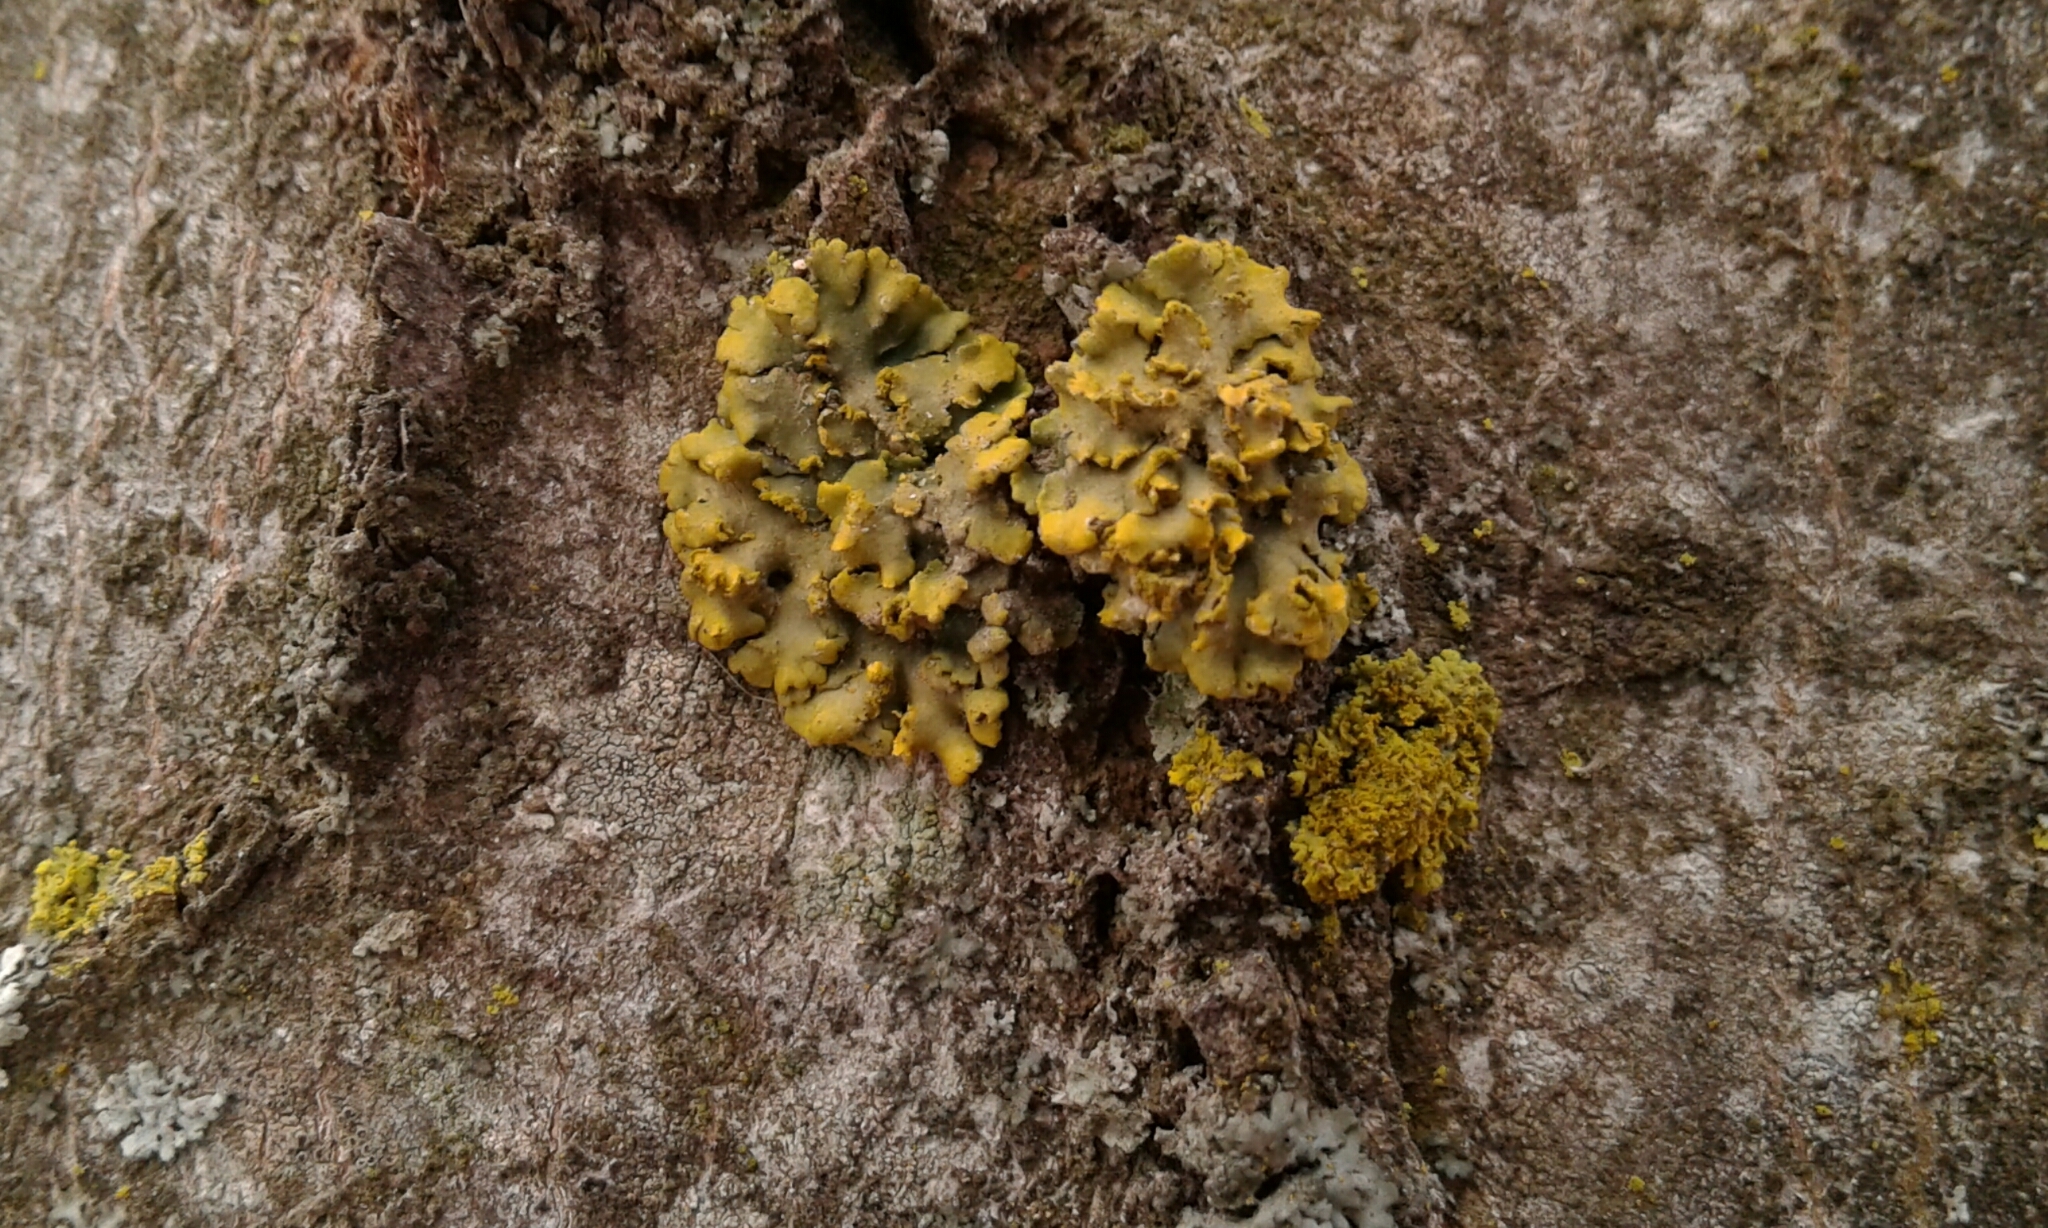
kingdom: Fungi
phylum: Ascomycota
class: Lecanoromycetes
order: Teloschistales
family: Teloschistaceae
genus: Oxneria
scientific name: Oxneria fallax
